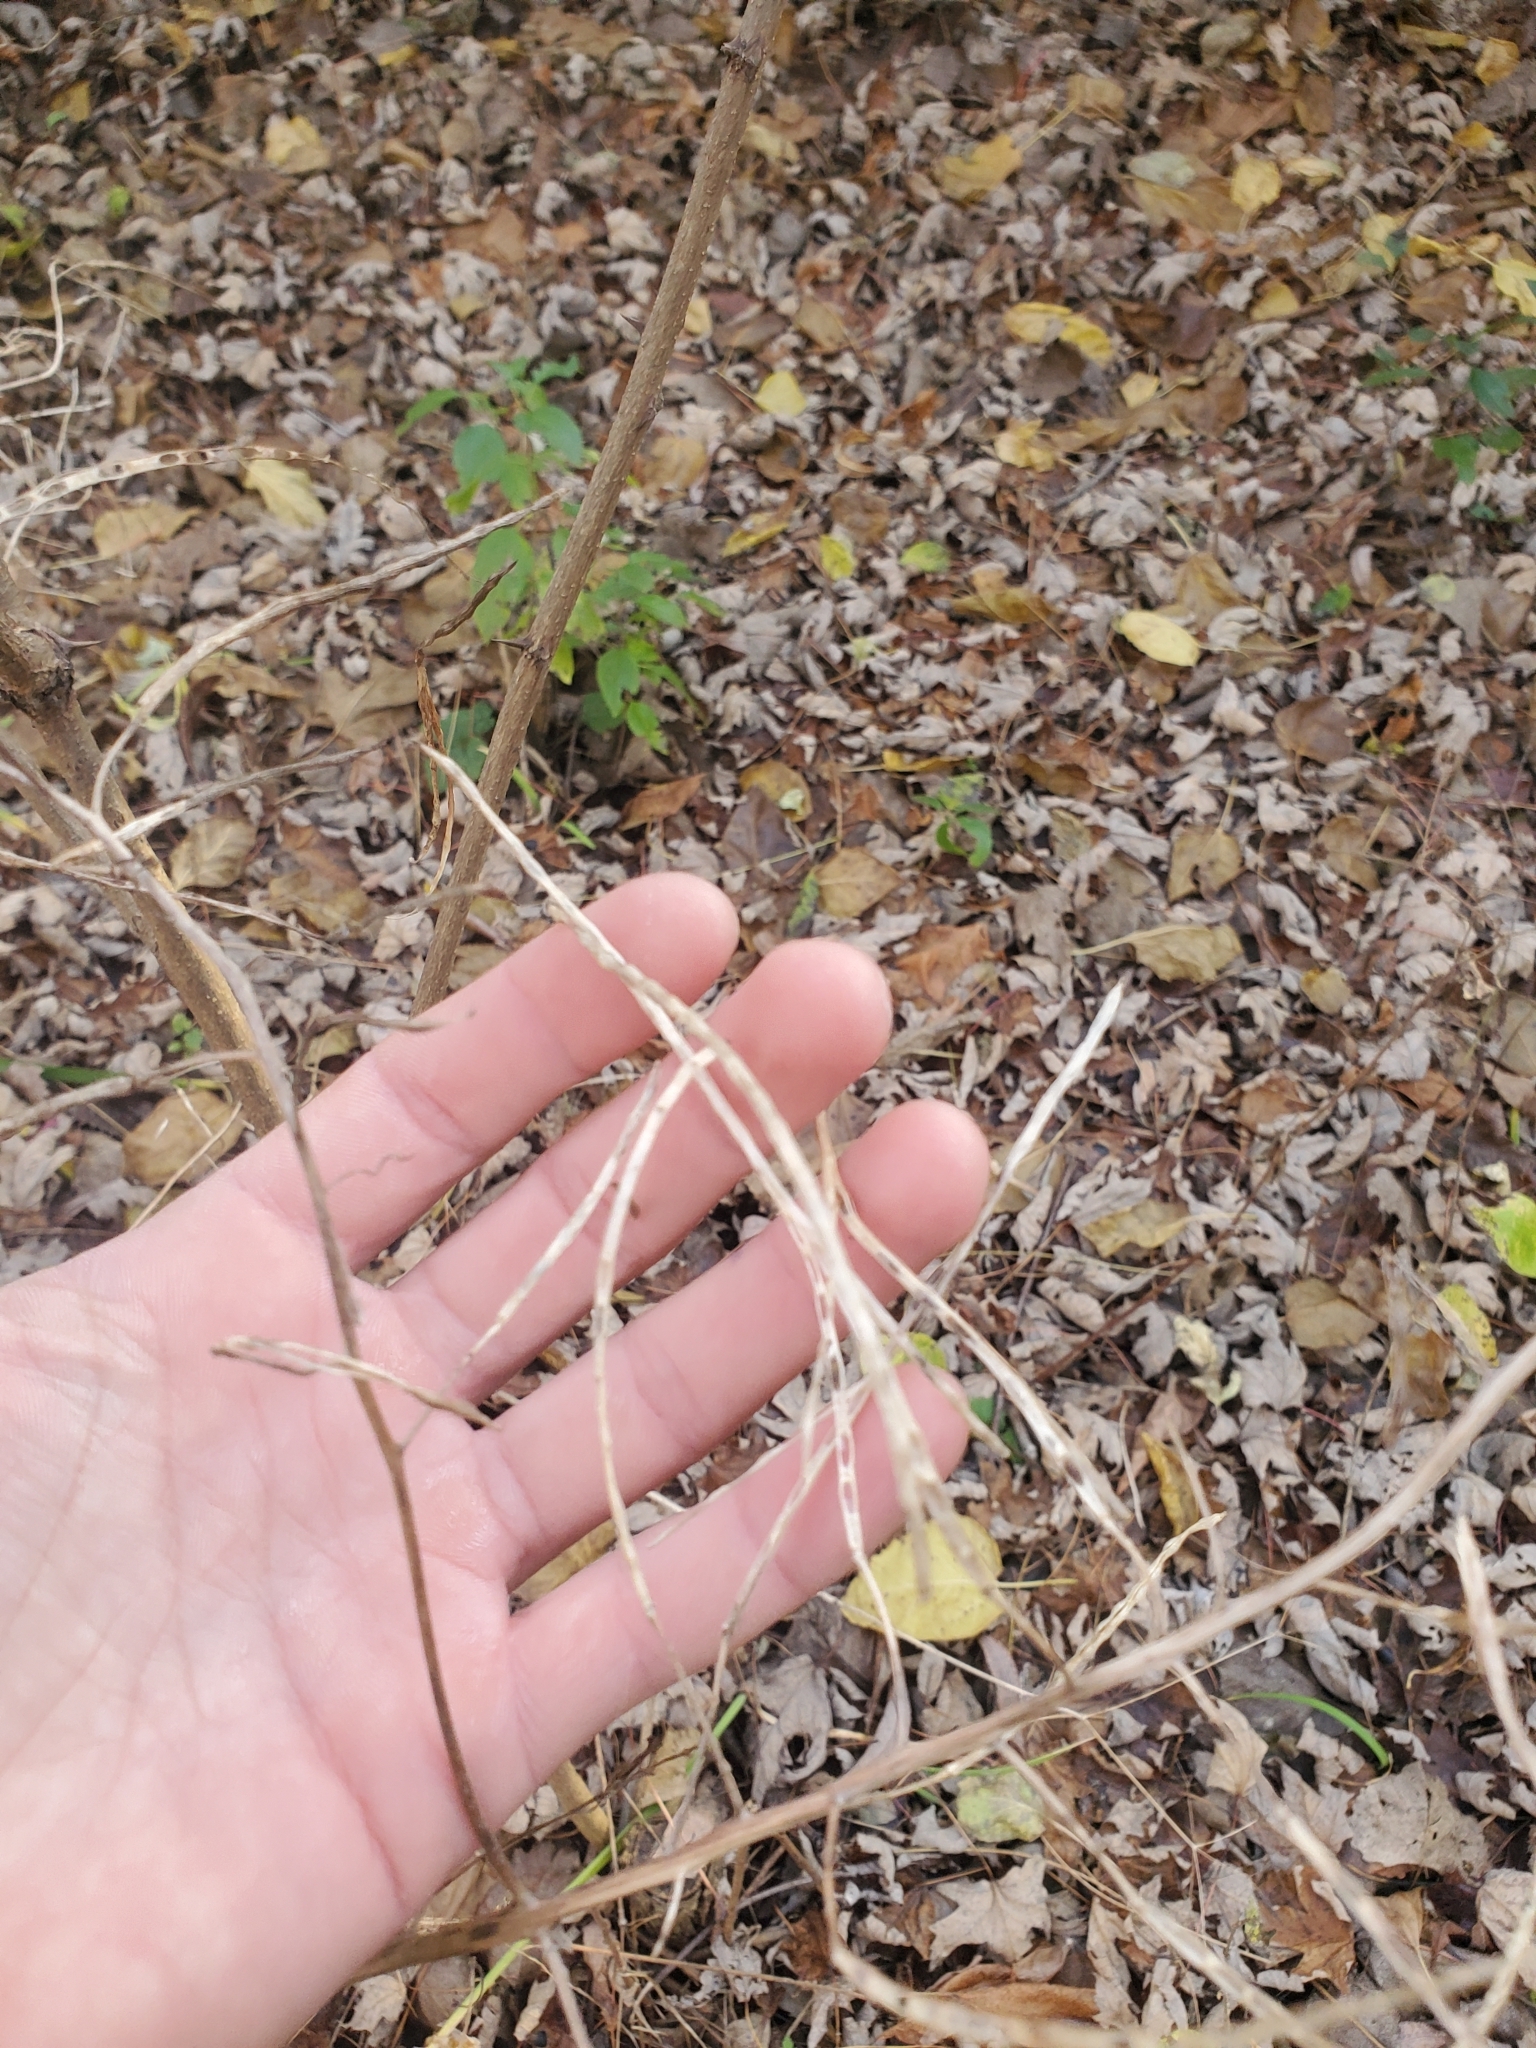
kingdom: Plantae
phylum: Tracheophyta
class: Magnoliopsida
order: Brassicales
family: Brassicaceae
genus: Hesperis
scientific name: Hesperis matronalis
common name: Dame's-violet
